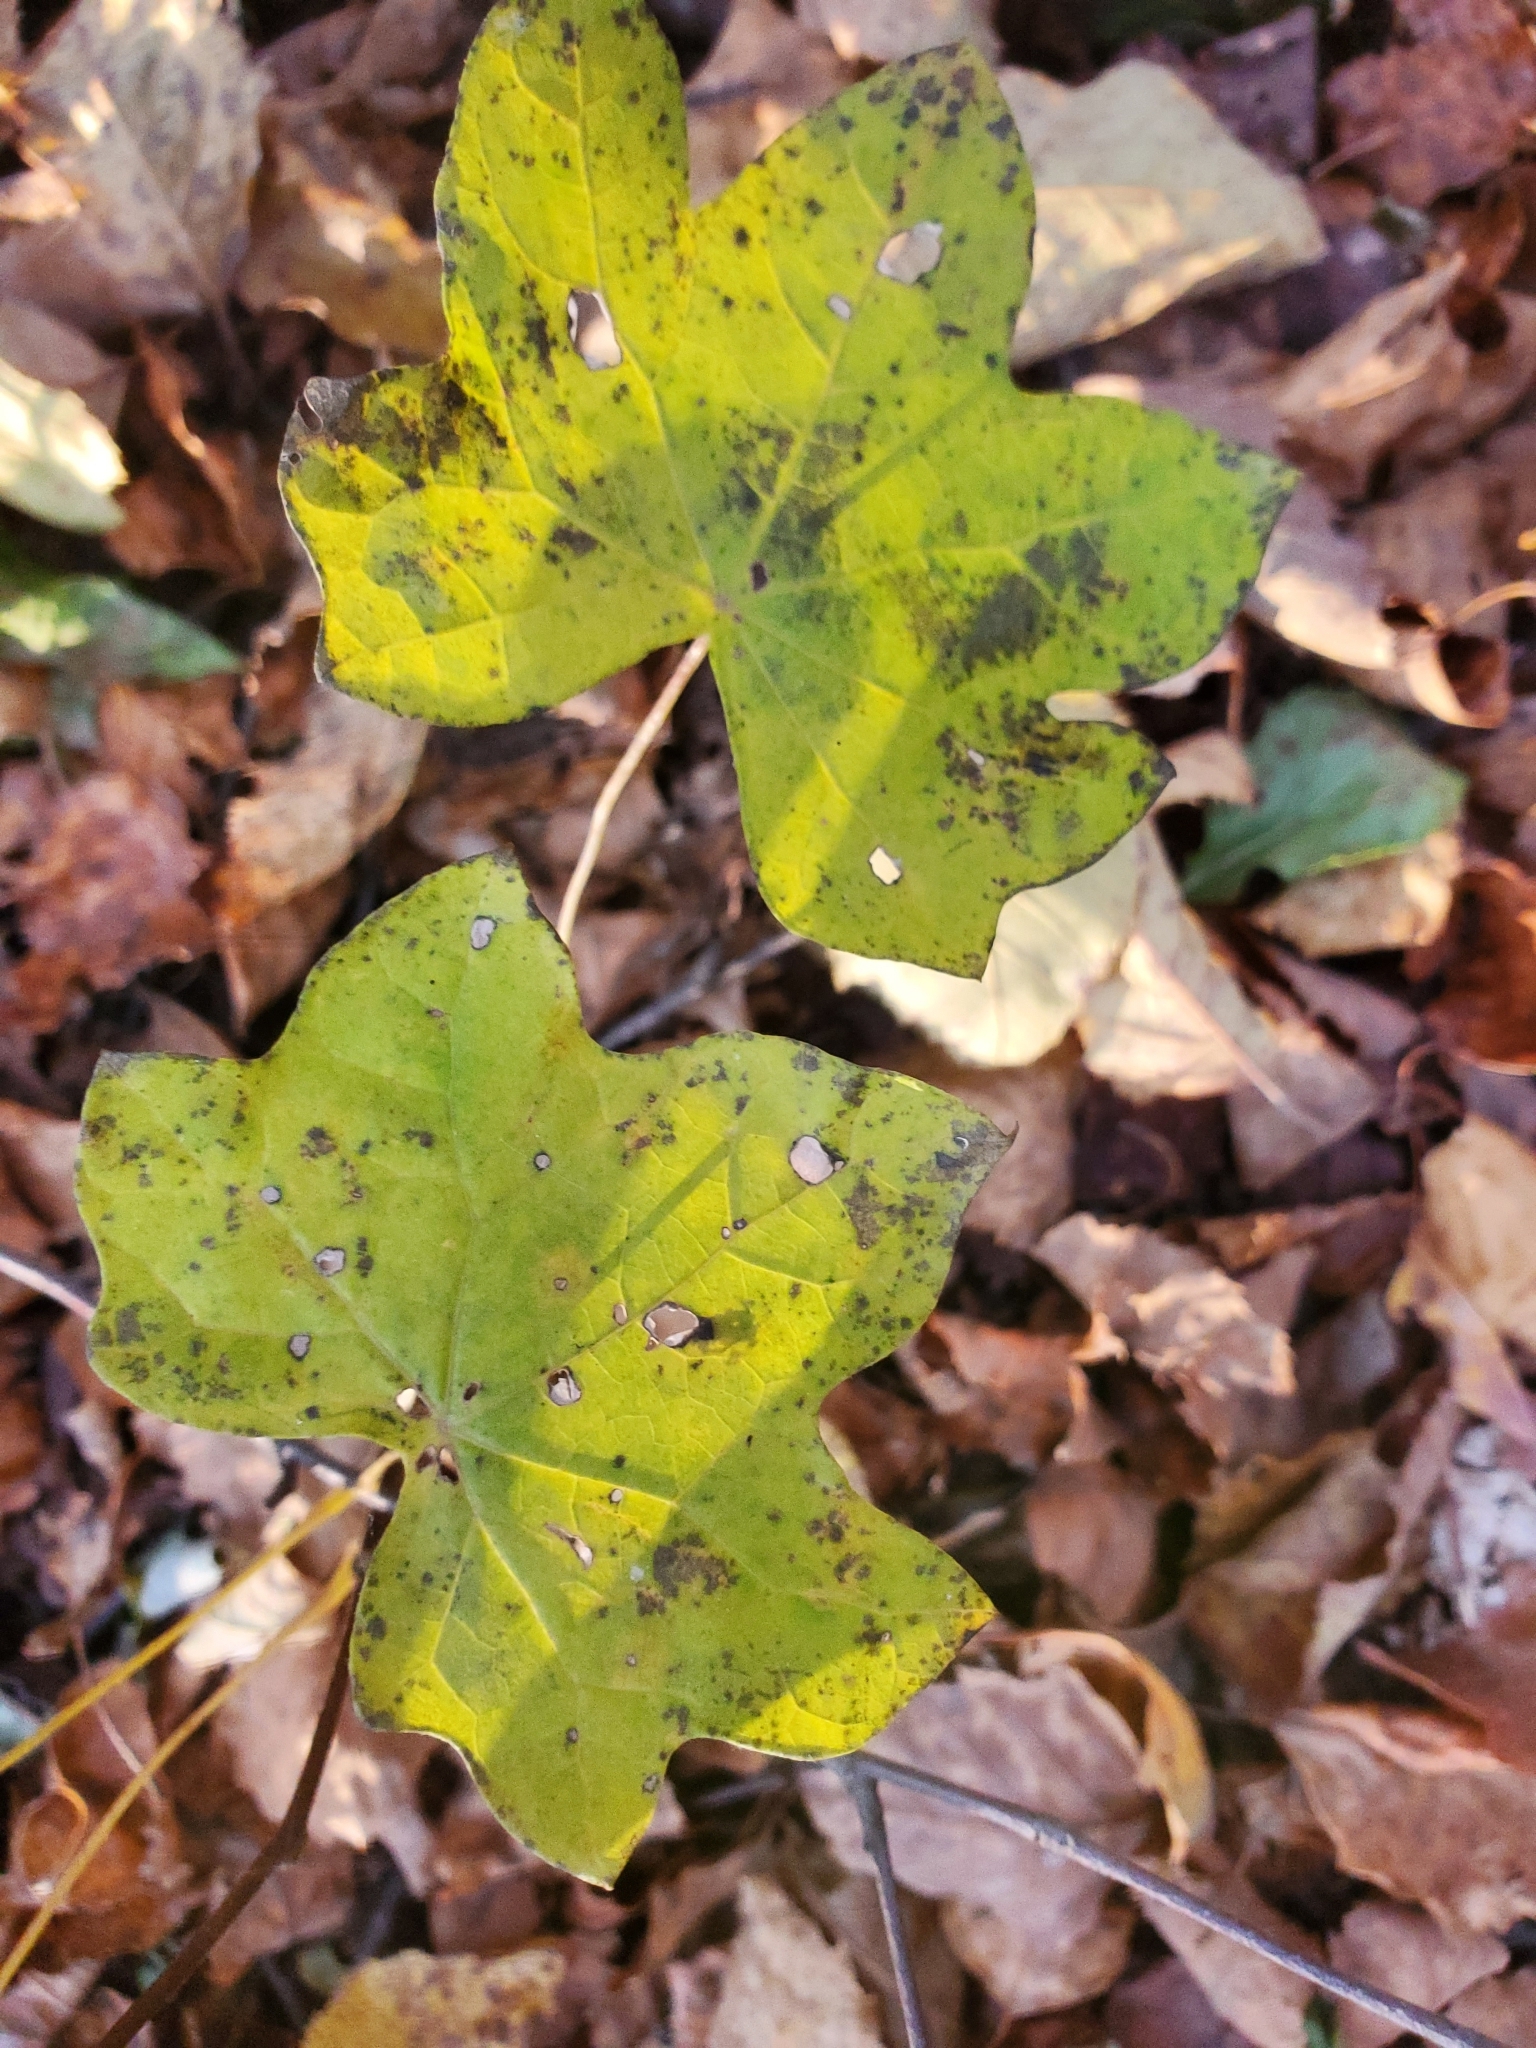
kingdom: Plantae
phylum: Tracheophyta
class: Magnoliopsida
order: Ranunculales
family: Menispermaceae
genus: Menispermum
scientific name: Menispermum canadense
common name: Moonseed
